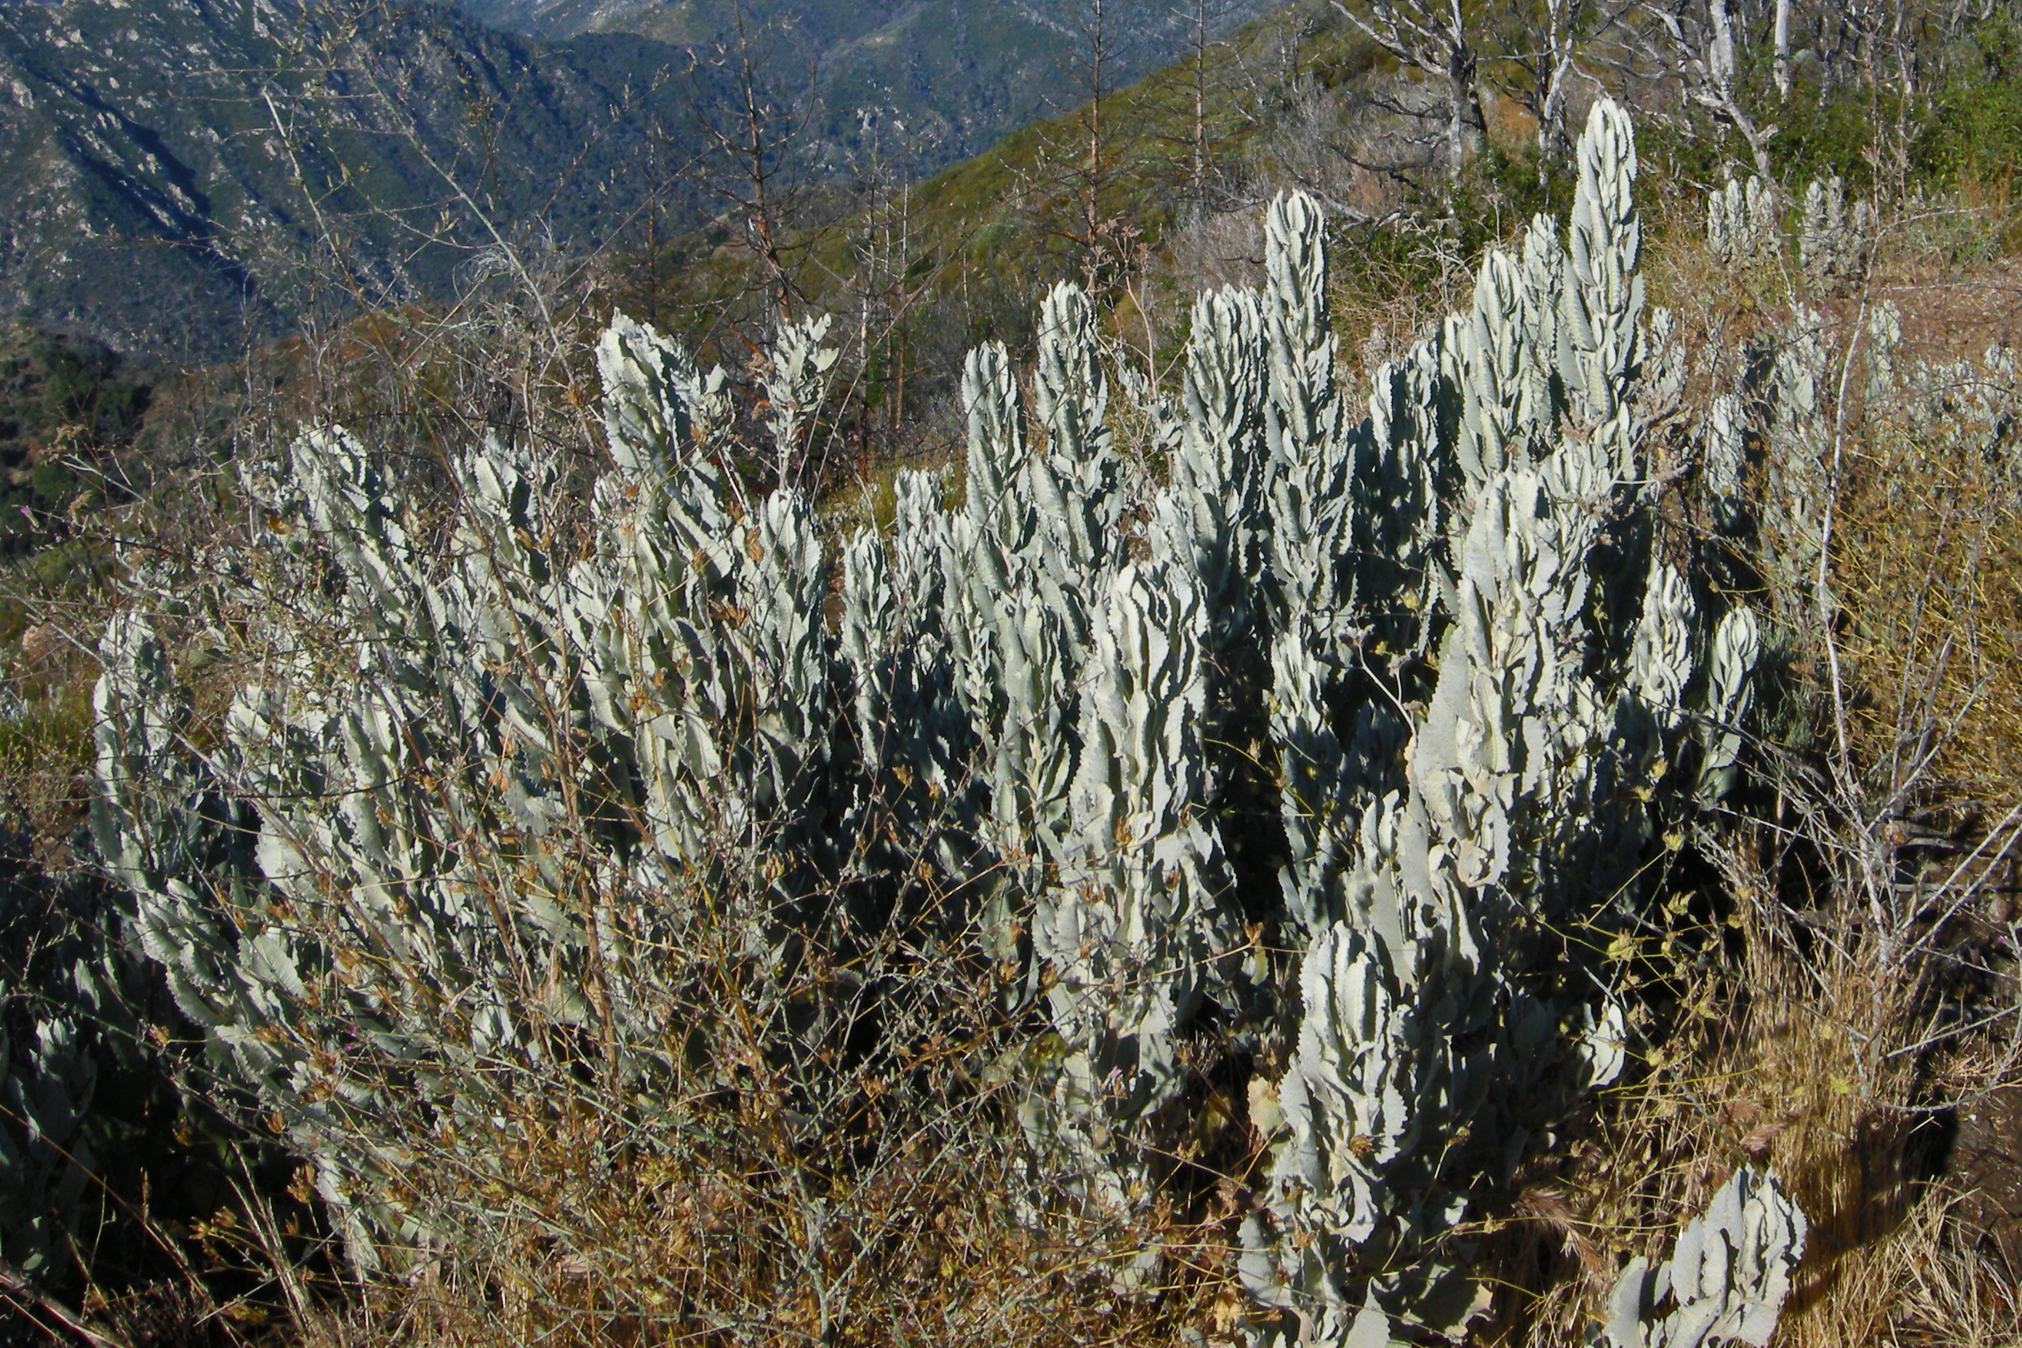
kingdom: Plantae
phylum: Tracheophyta
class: Magnoliopsida
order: Boraginales
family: Namaceae
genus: Eriodictyon
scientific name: Eriodictyon tomentosum
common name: Woolly yerba-santa
